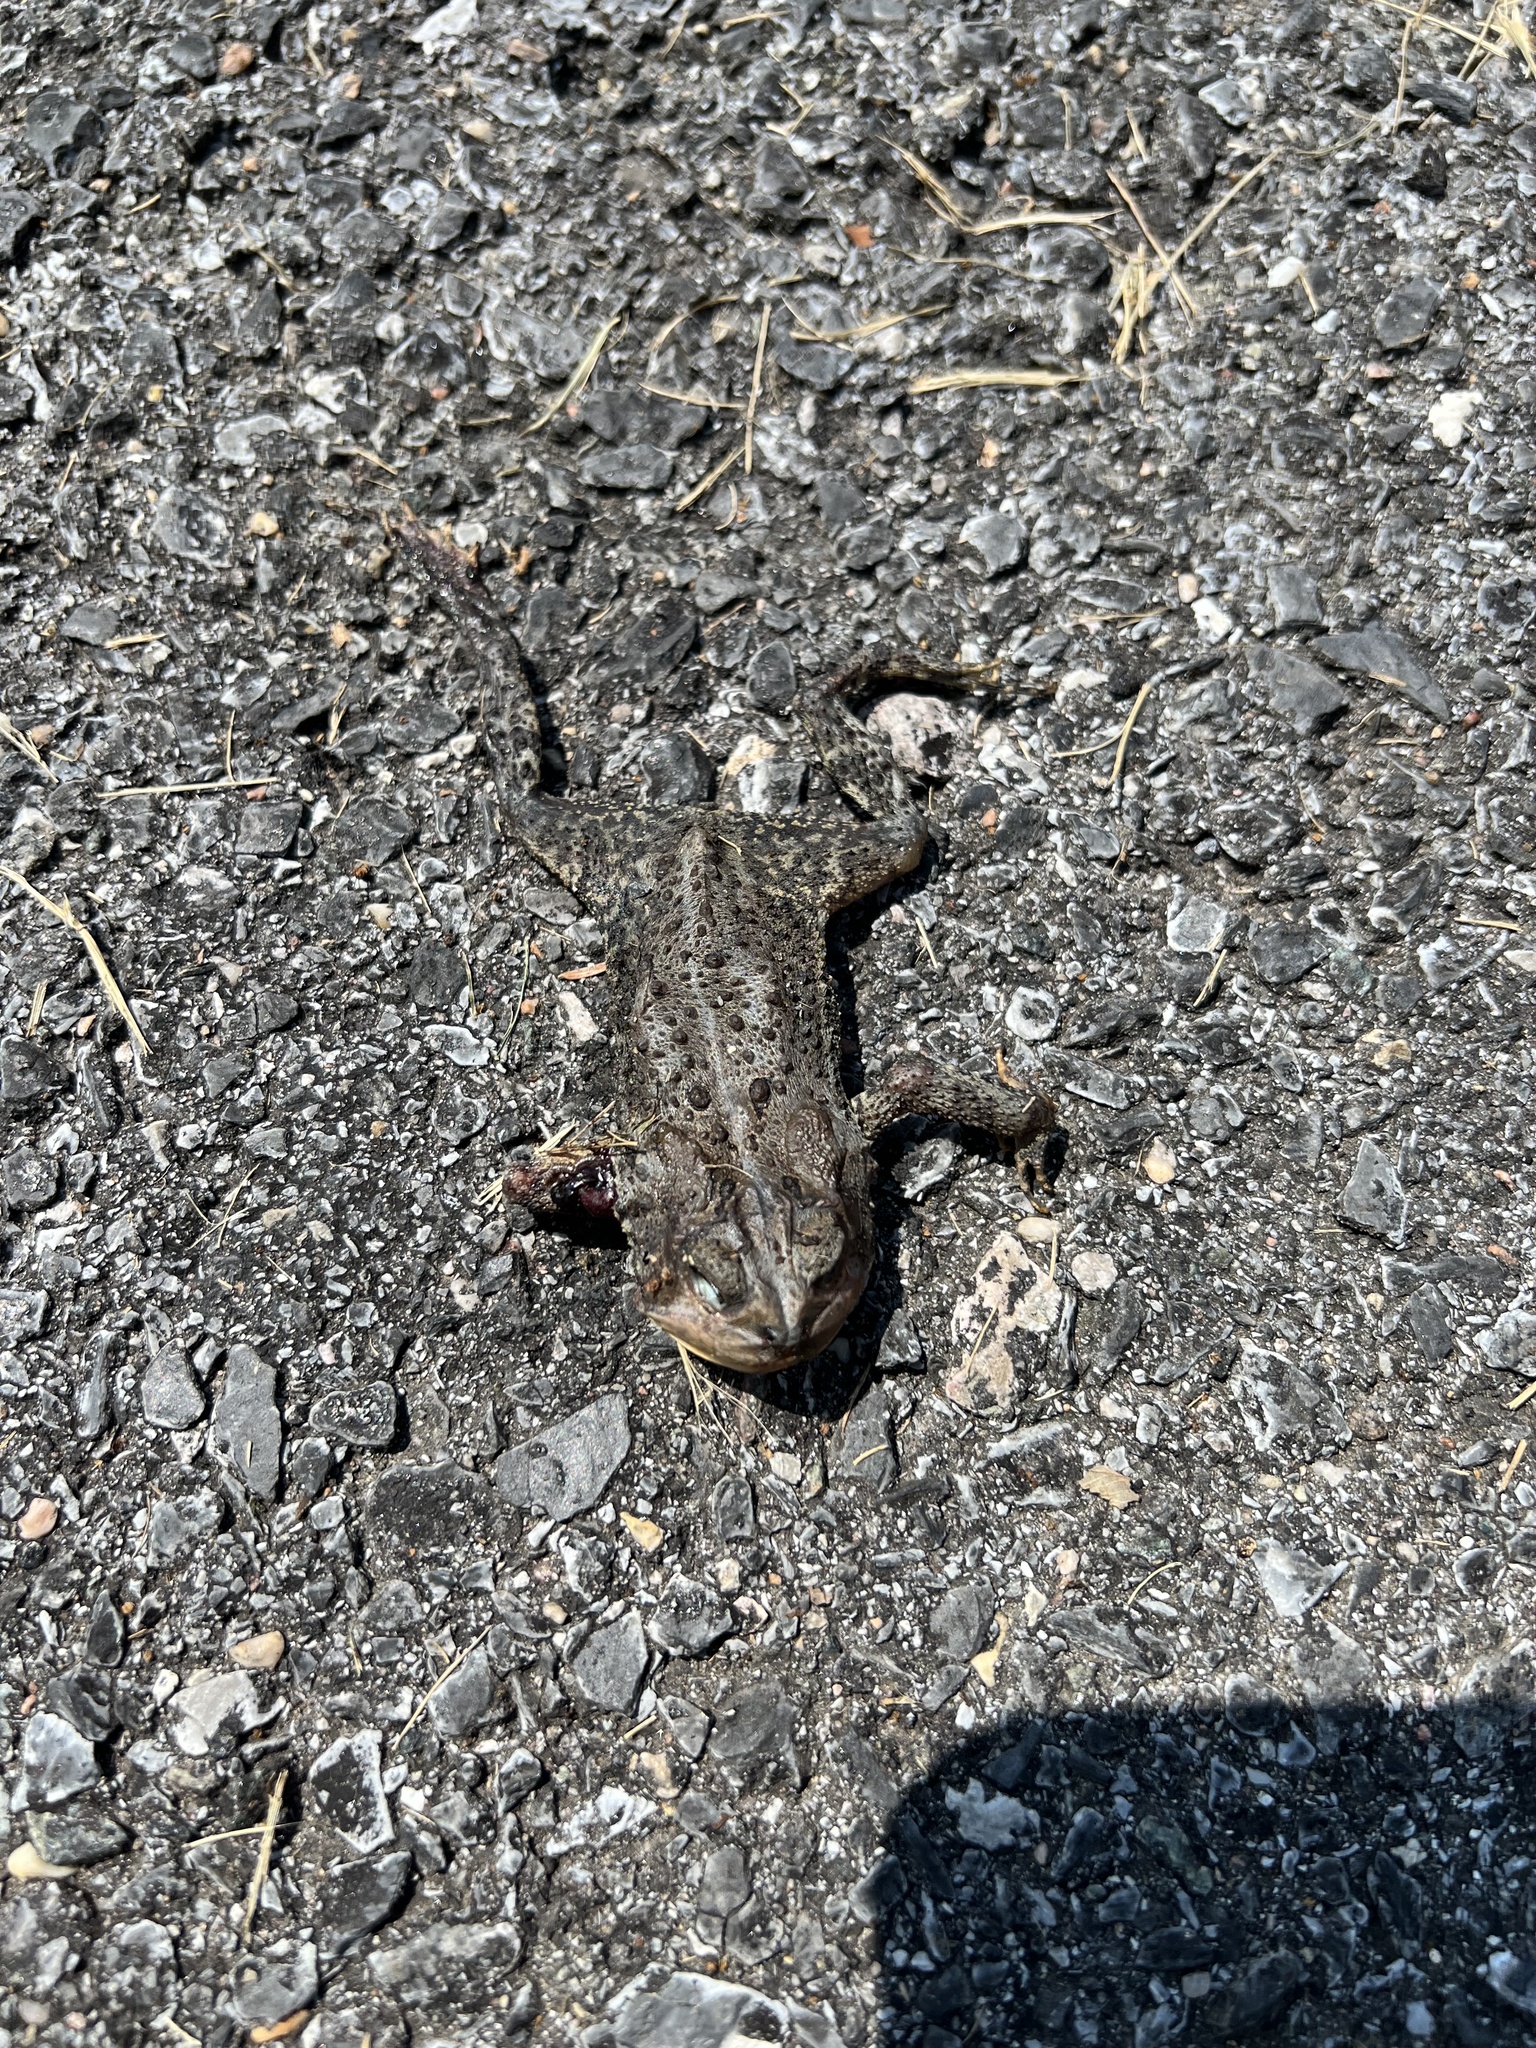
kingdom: Animalia
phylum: Chordata
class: Amphibia
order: Anura
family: Bufonidae
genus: Anaxyrus
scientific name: Anaxyrus americanus
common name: American toad
